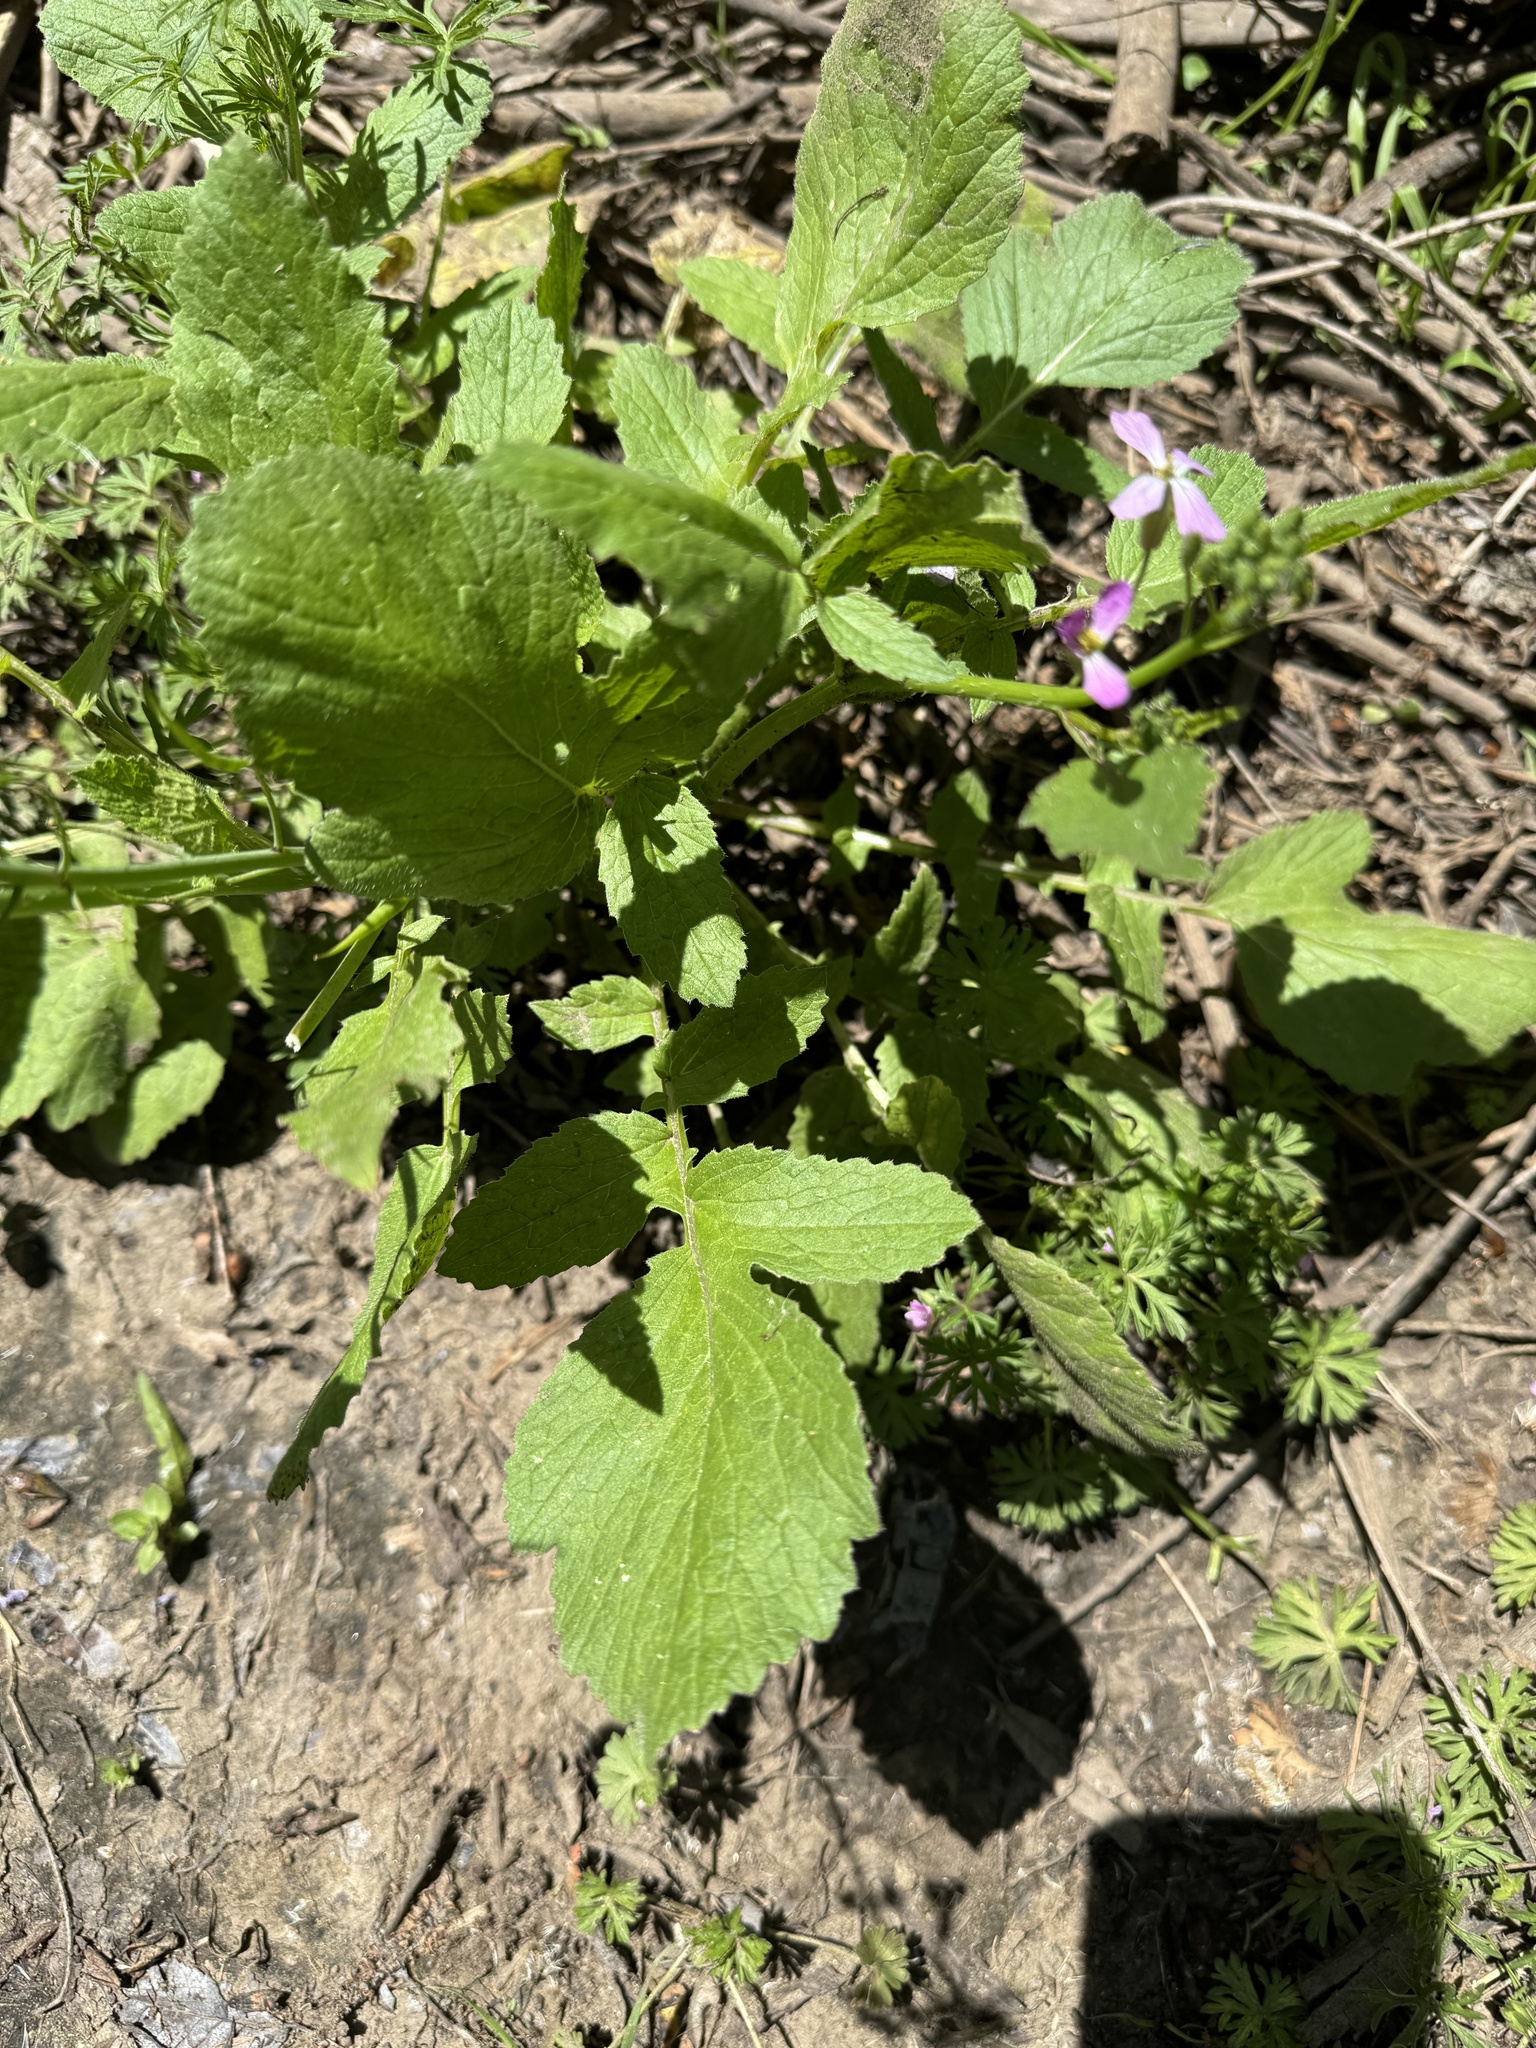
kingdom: Plantae
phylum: Tracheophyta
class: Magnoliopsida
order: Brassicales
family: Brassicaceae
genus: Raphanus
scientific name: Raphanus sativus
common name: Cultivated radish
